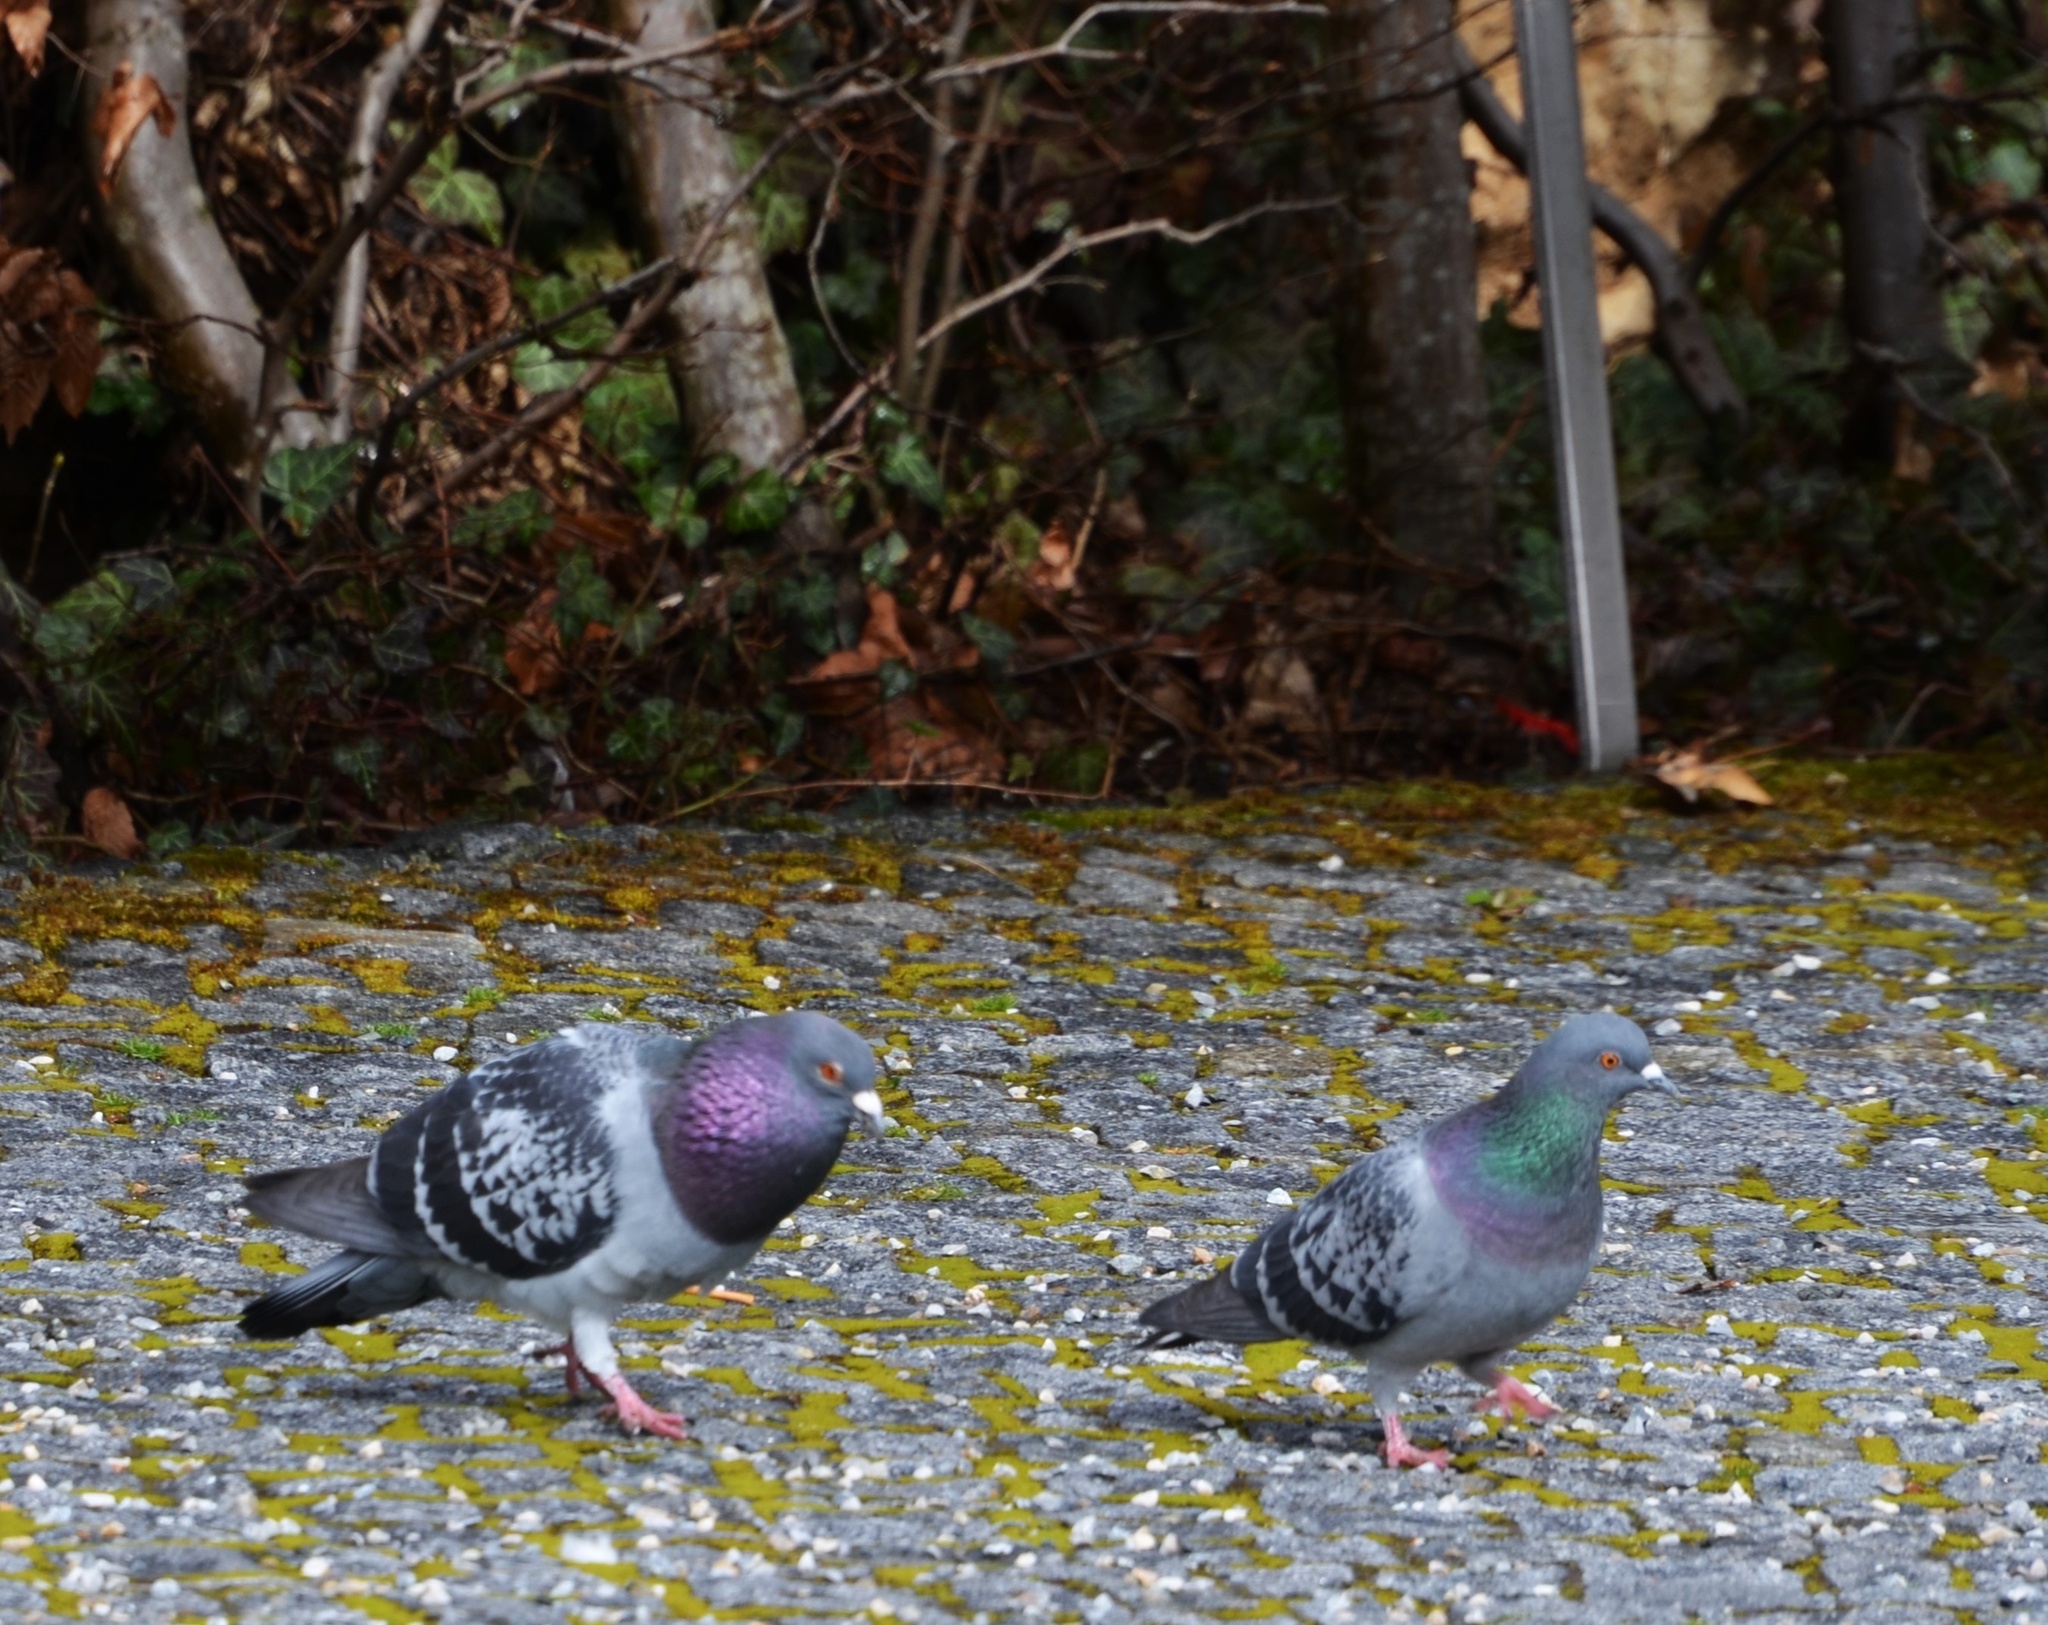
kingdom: Animalia
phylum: Chordata
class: Aves
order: Columbiformes
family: Columbidae
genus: Columba
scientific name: Columba livia
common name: Rock pigeon
